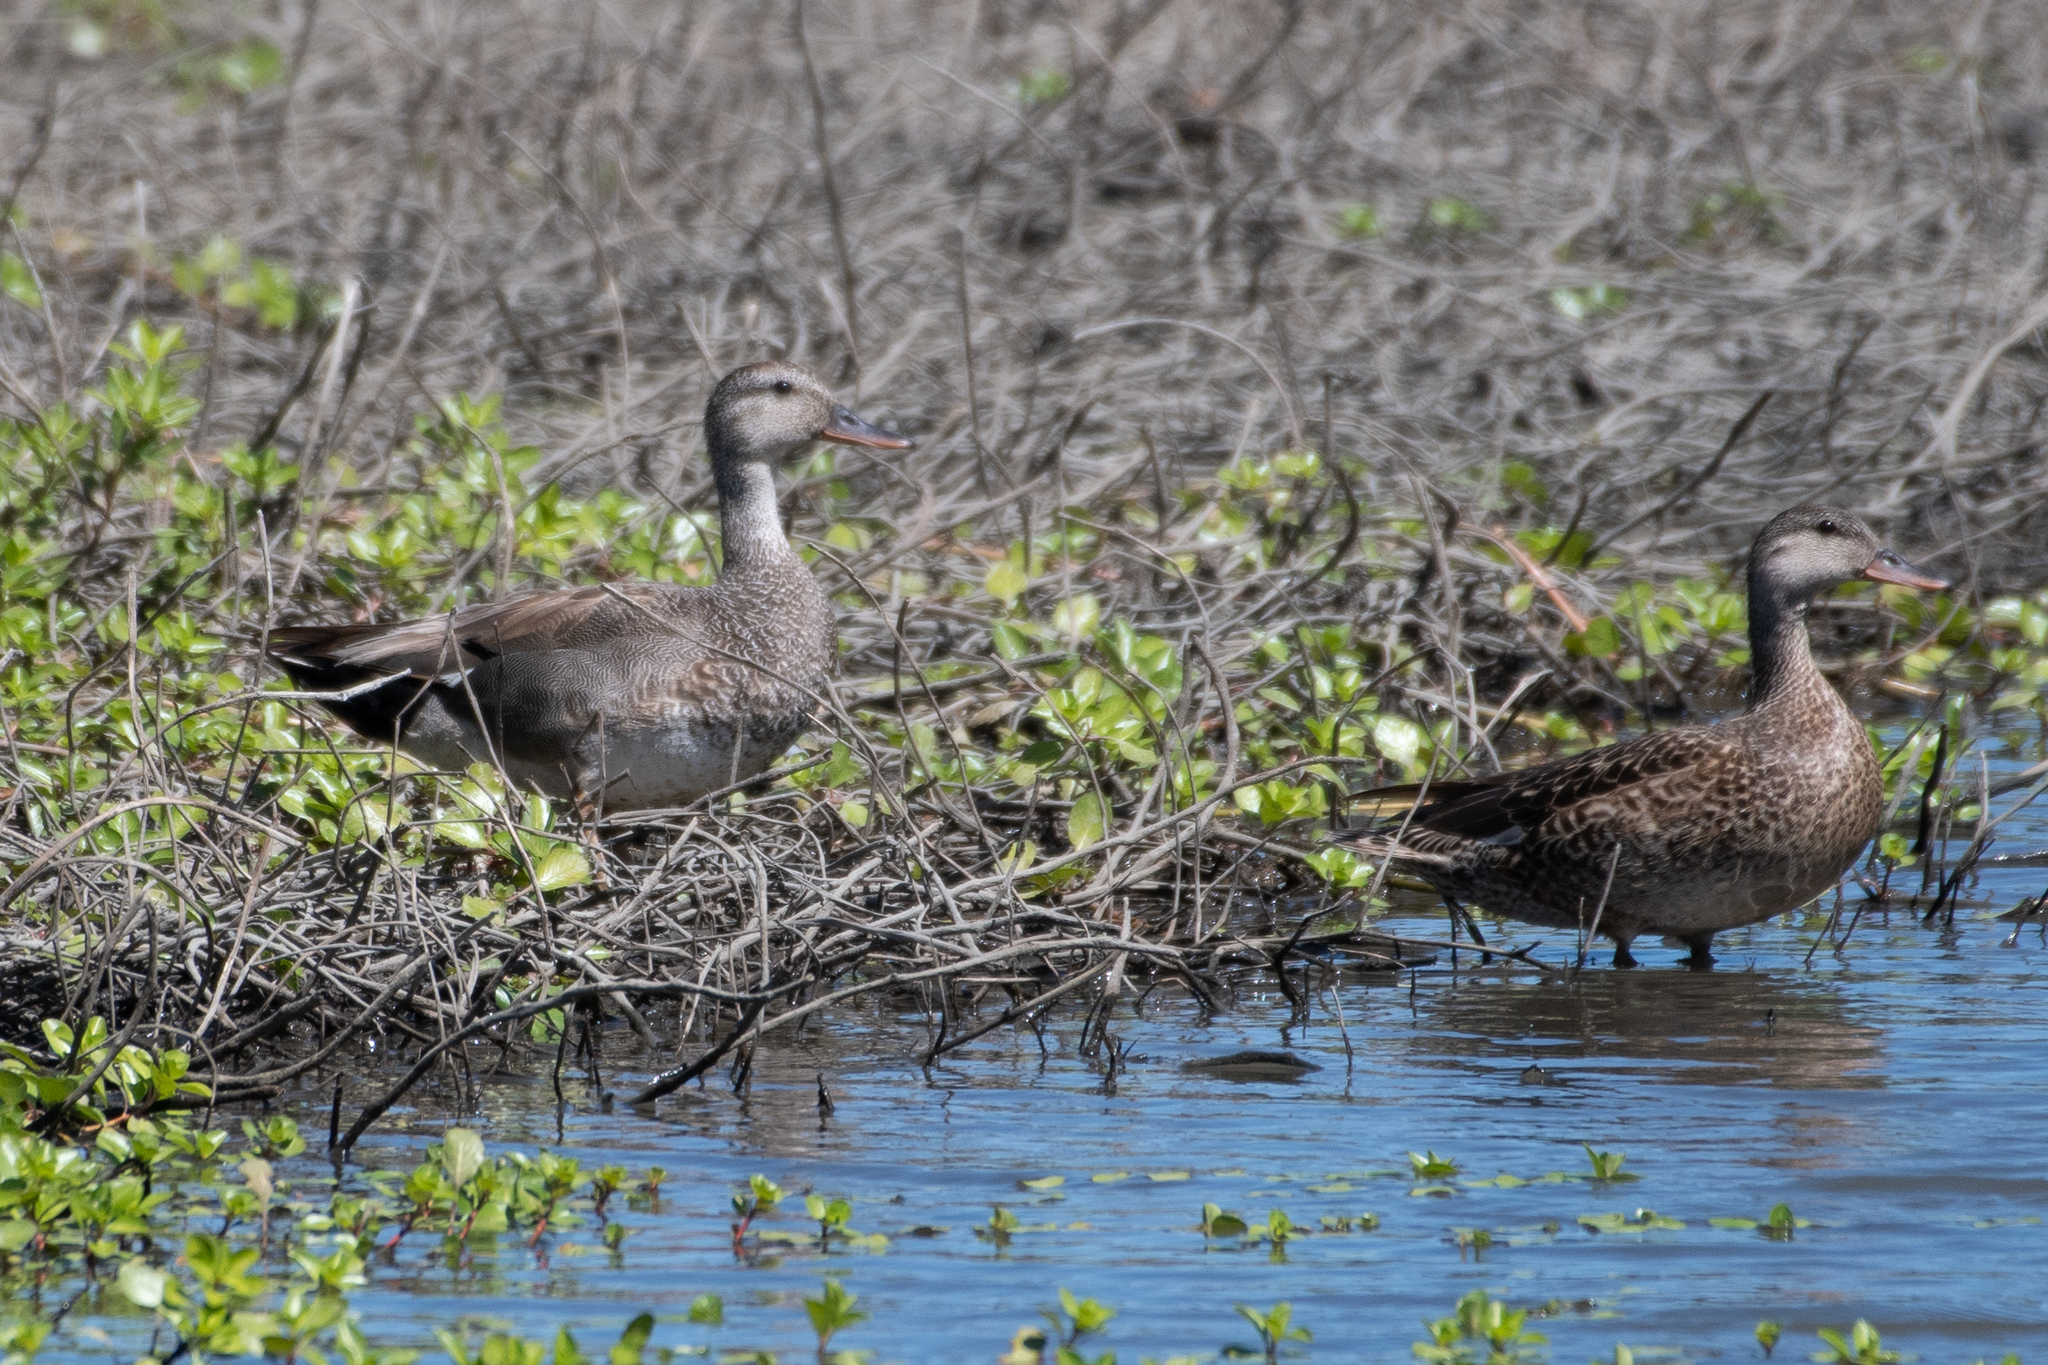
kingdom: Animalia
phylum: Chordata
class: Aves
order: Anseriformes
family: Anatidae
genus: Mareca
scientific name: Mareca strepera
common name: Gadwall
